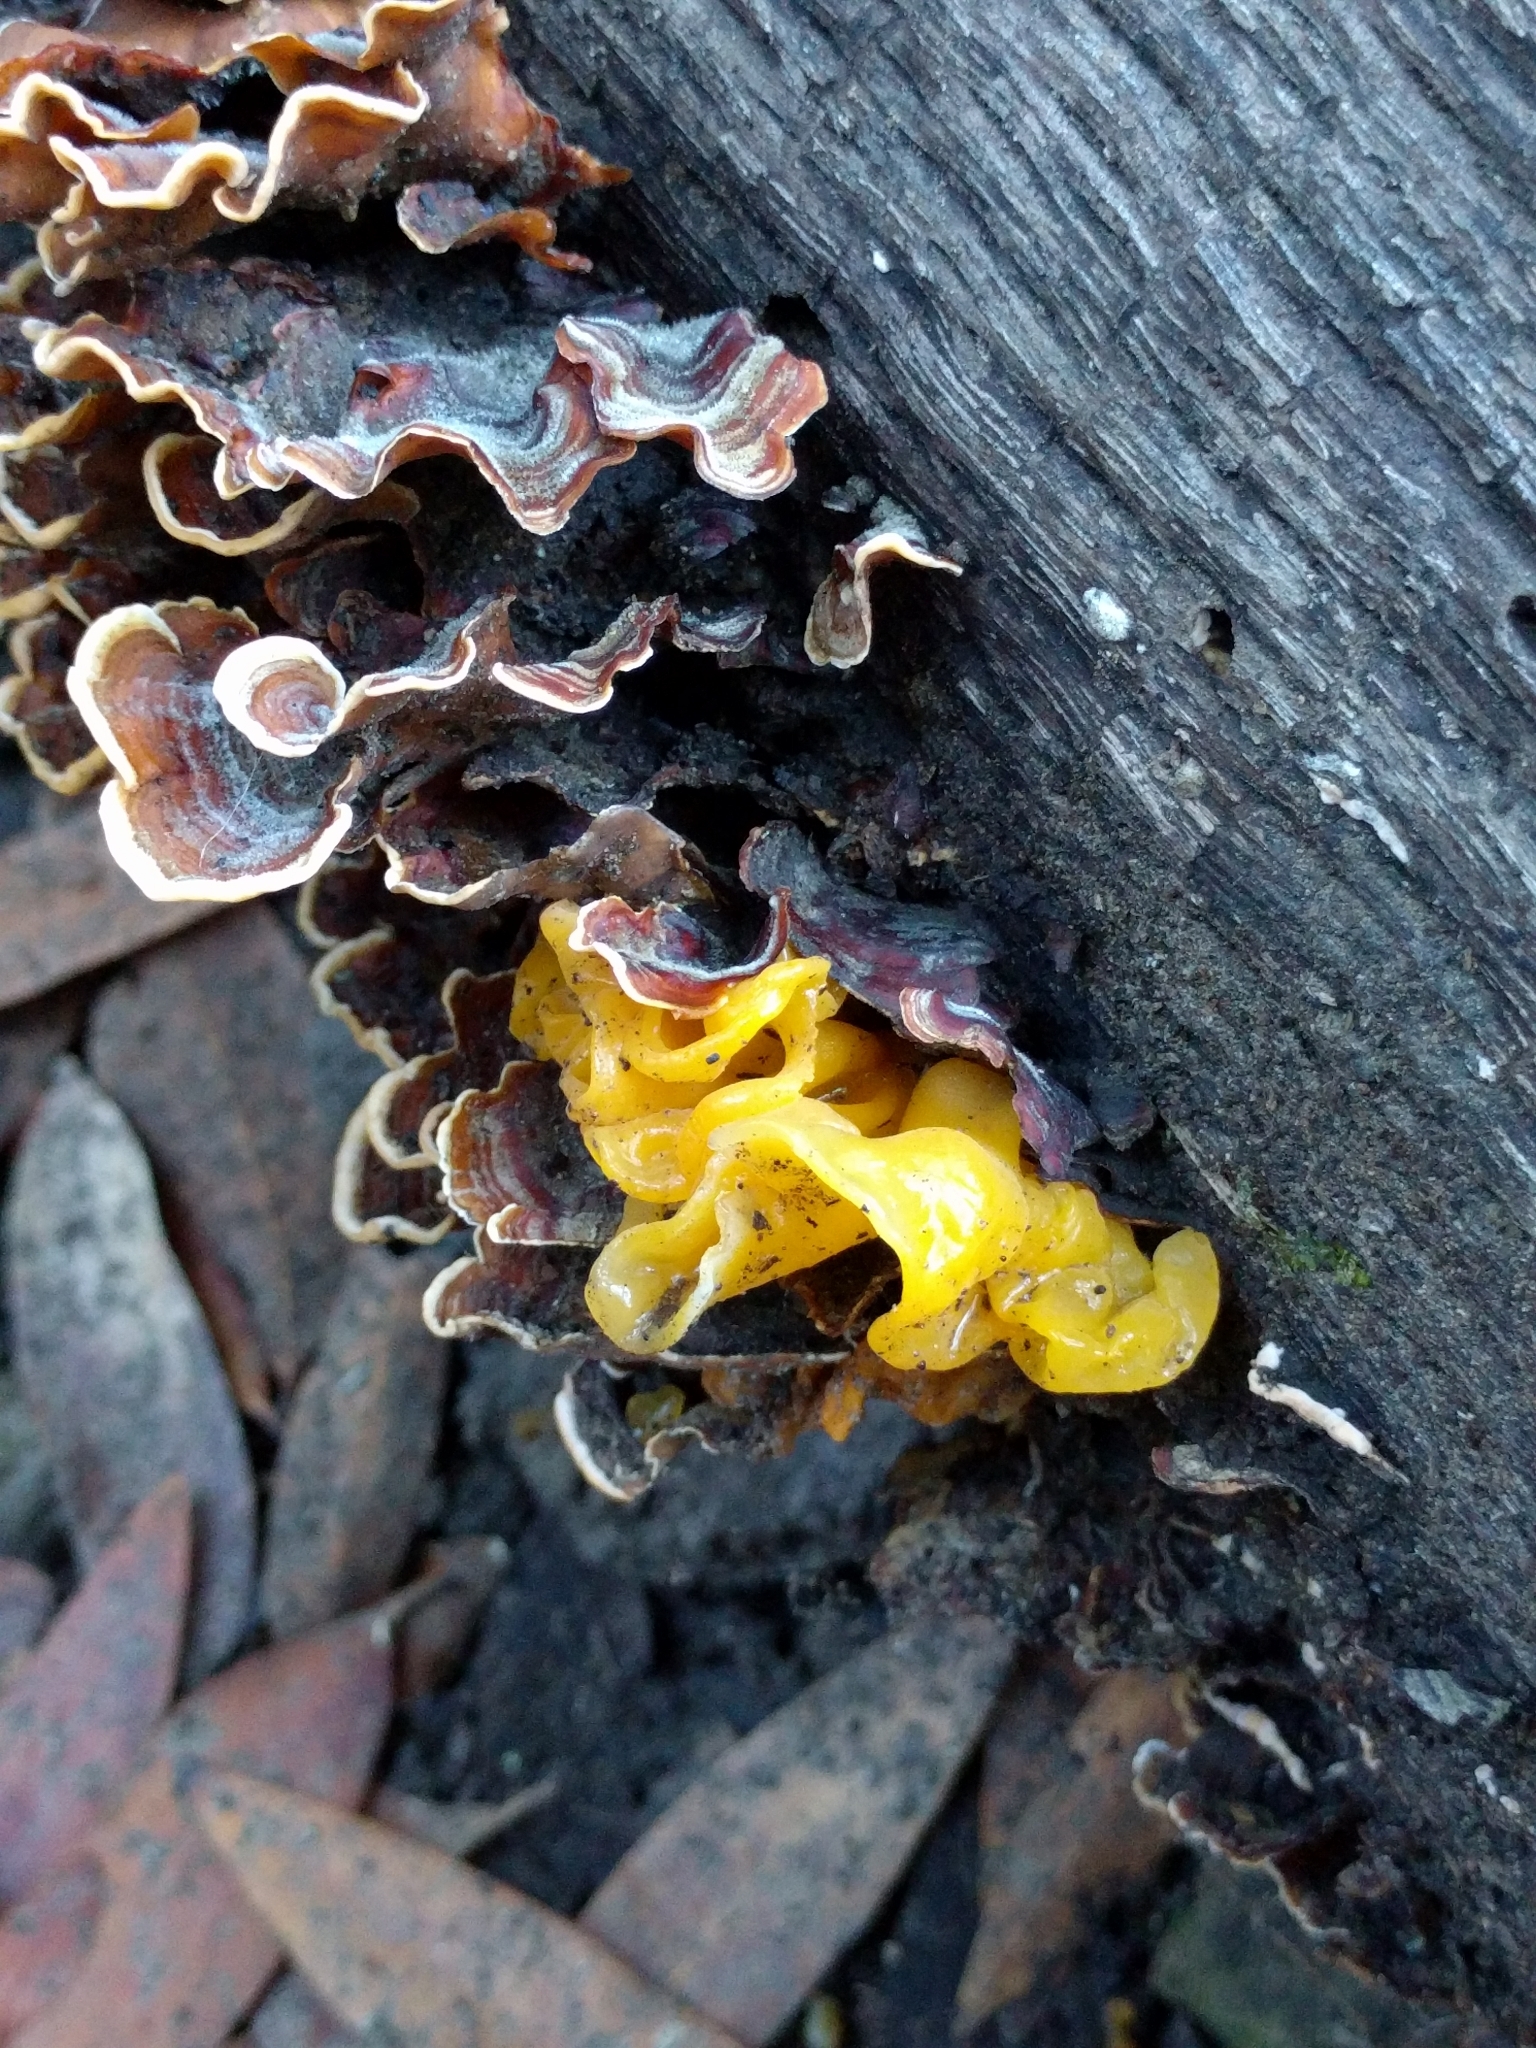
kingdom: Fungi
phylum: Basidiomycota
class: Tremellomycetes
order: Tremellales
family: Naemateliaceae
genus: Naematelia
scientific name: Naematelia aurantia
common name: Golden ear
